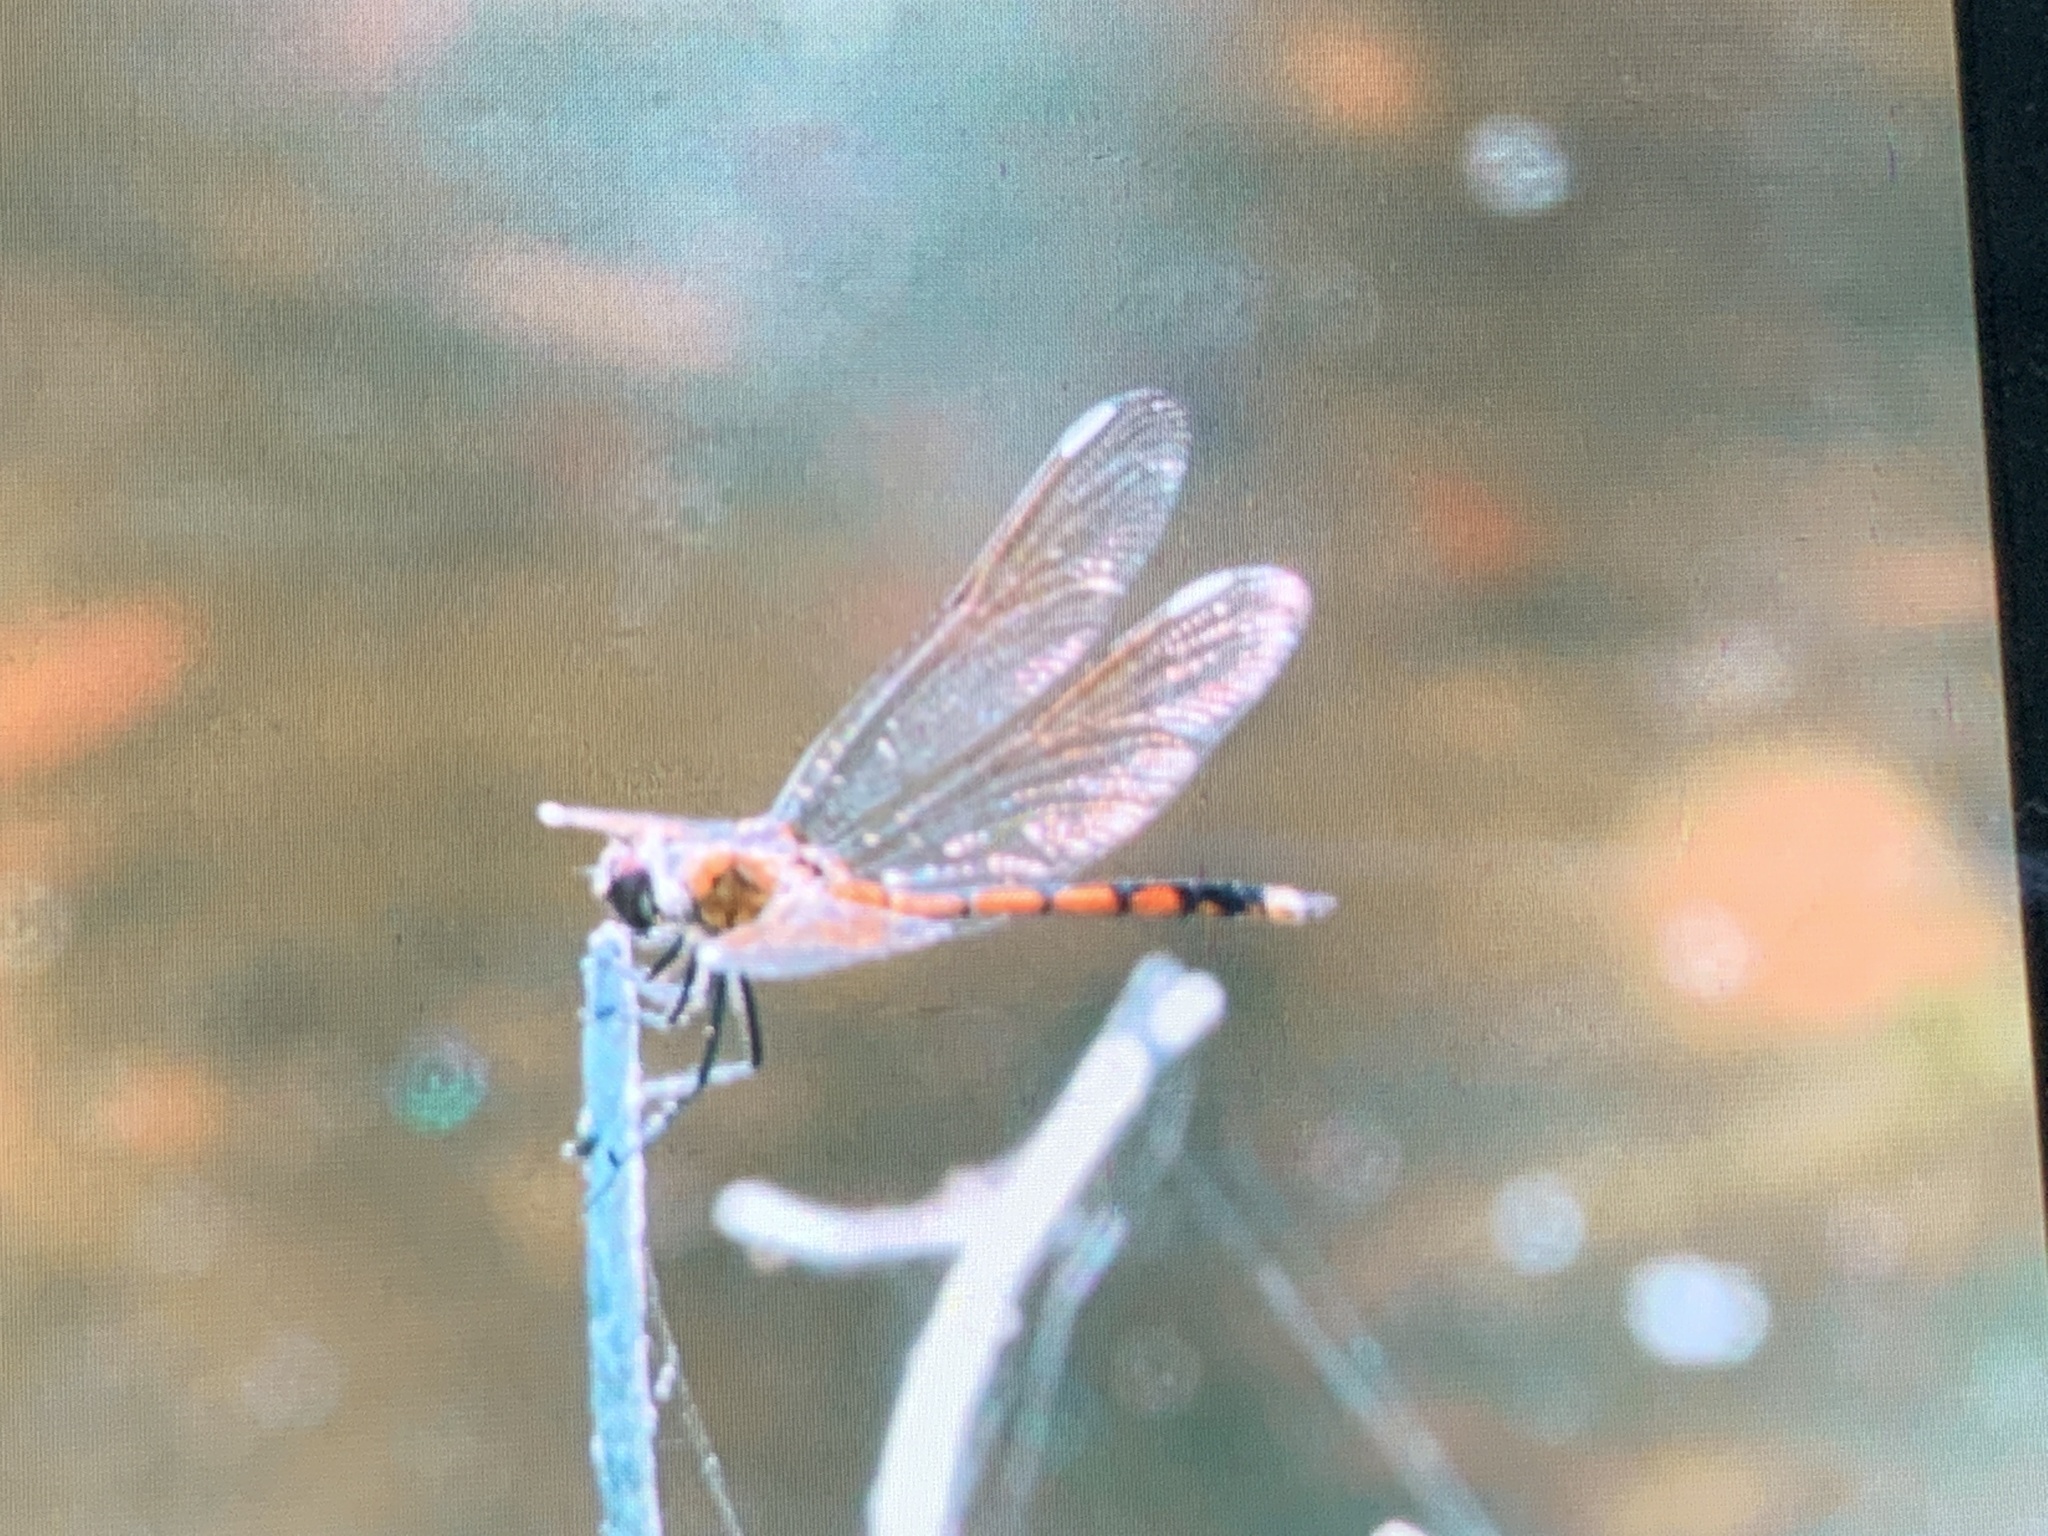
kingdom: Animalia
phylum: Arthropoda
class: Insecta
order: Odonata
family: Libellulidae
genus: Brachymesia
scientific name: Brachymesia gravida
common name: Four-spotted pennant
